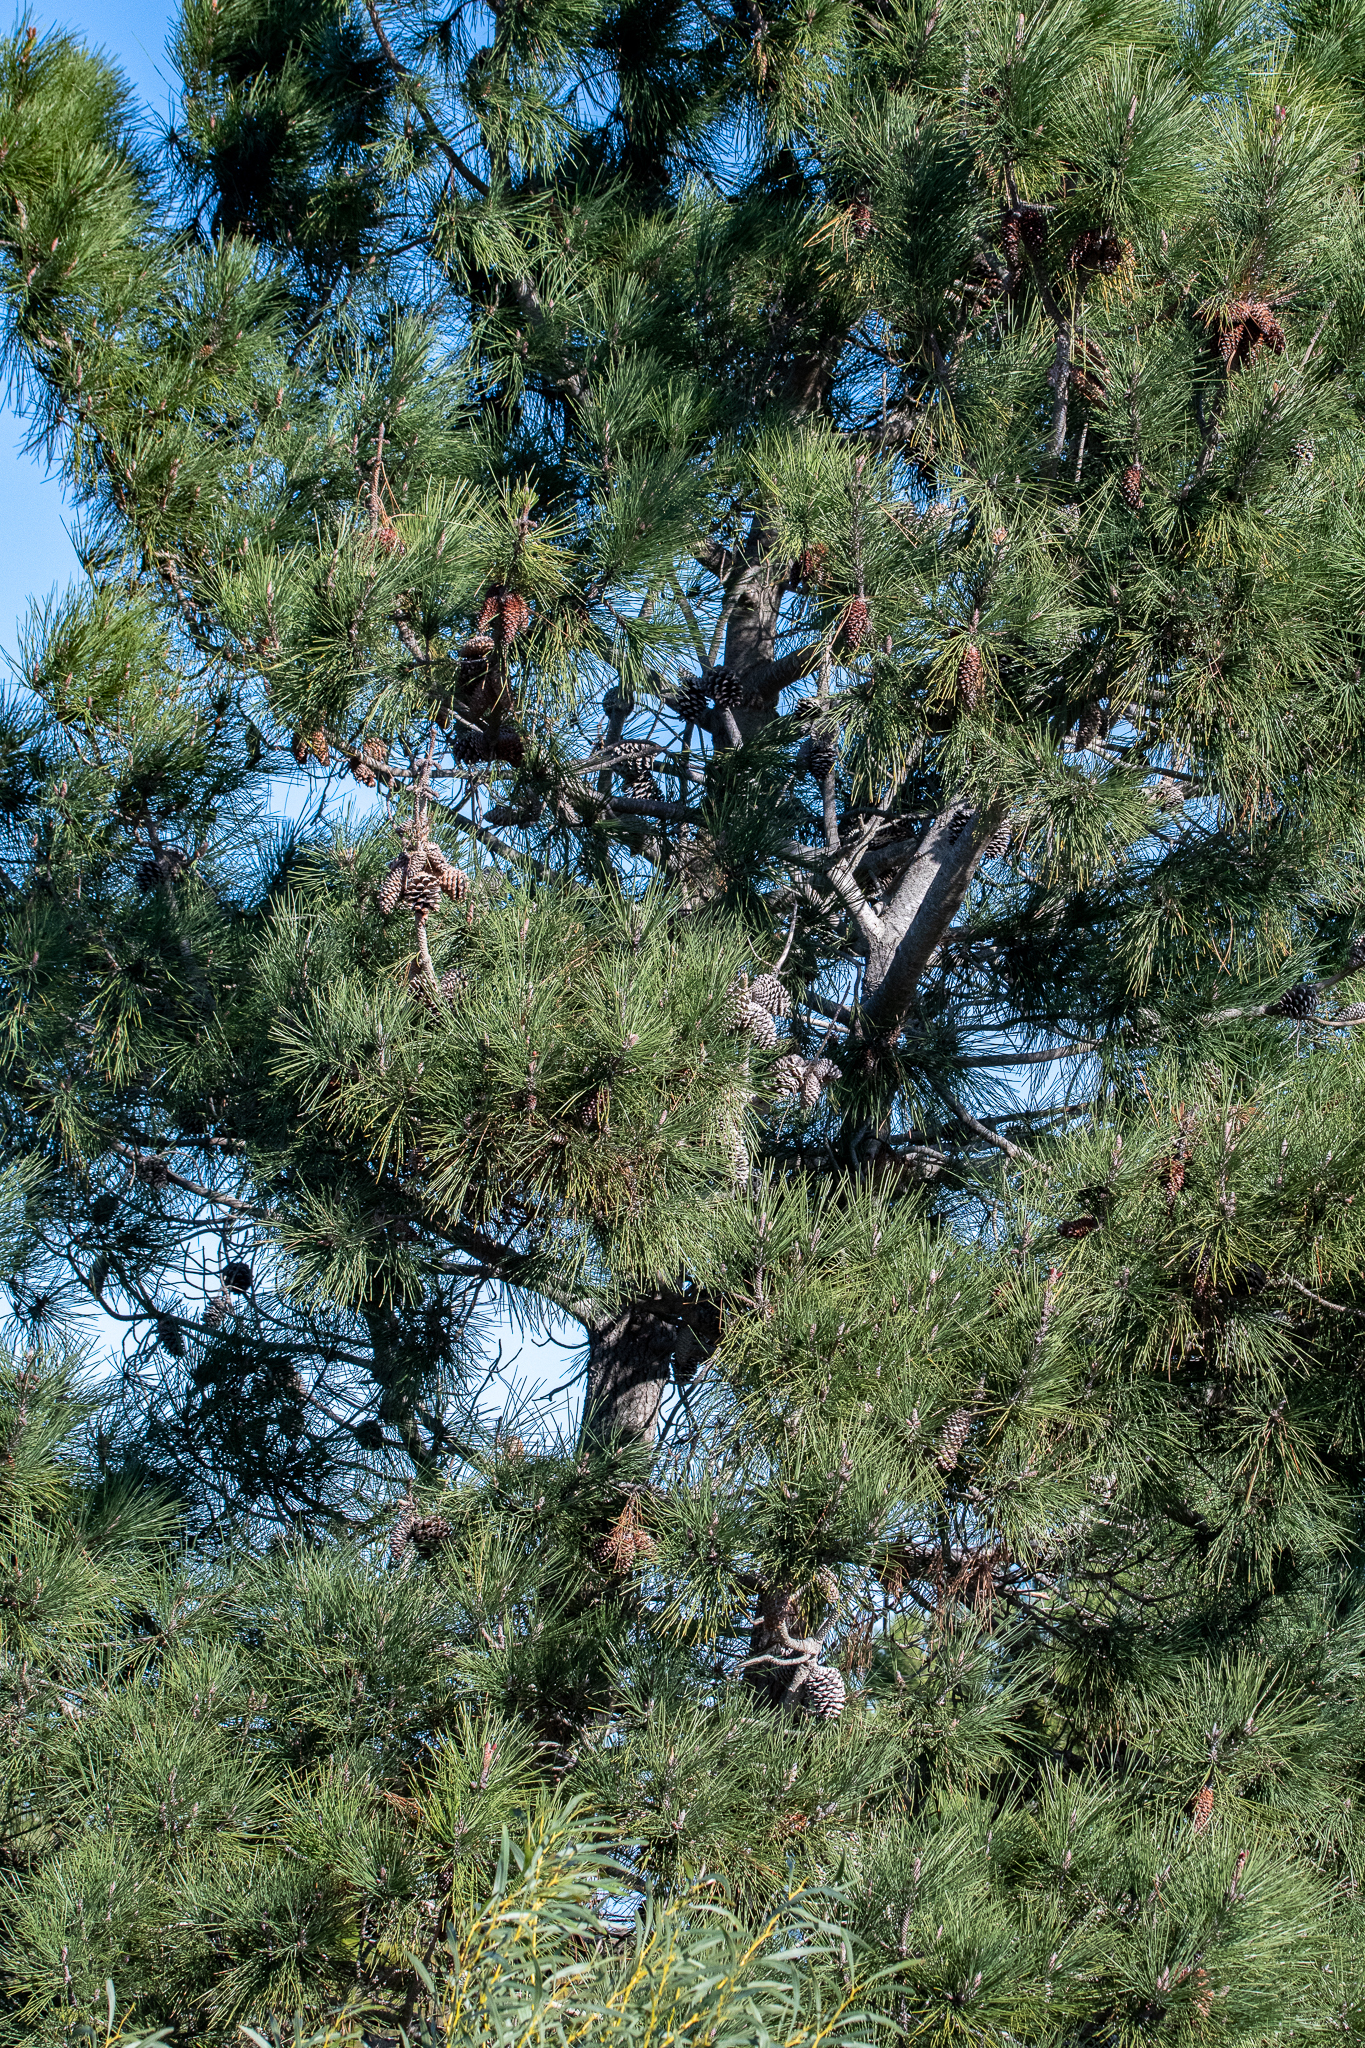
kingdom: Plantae
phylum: Tracheophyta
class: Pinopsida
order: Pinales
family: Pinaceae
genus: Pinus
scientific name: Pinus pinaster
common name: Maritime pine
